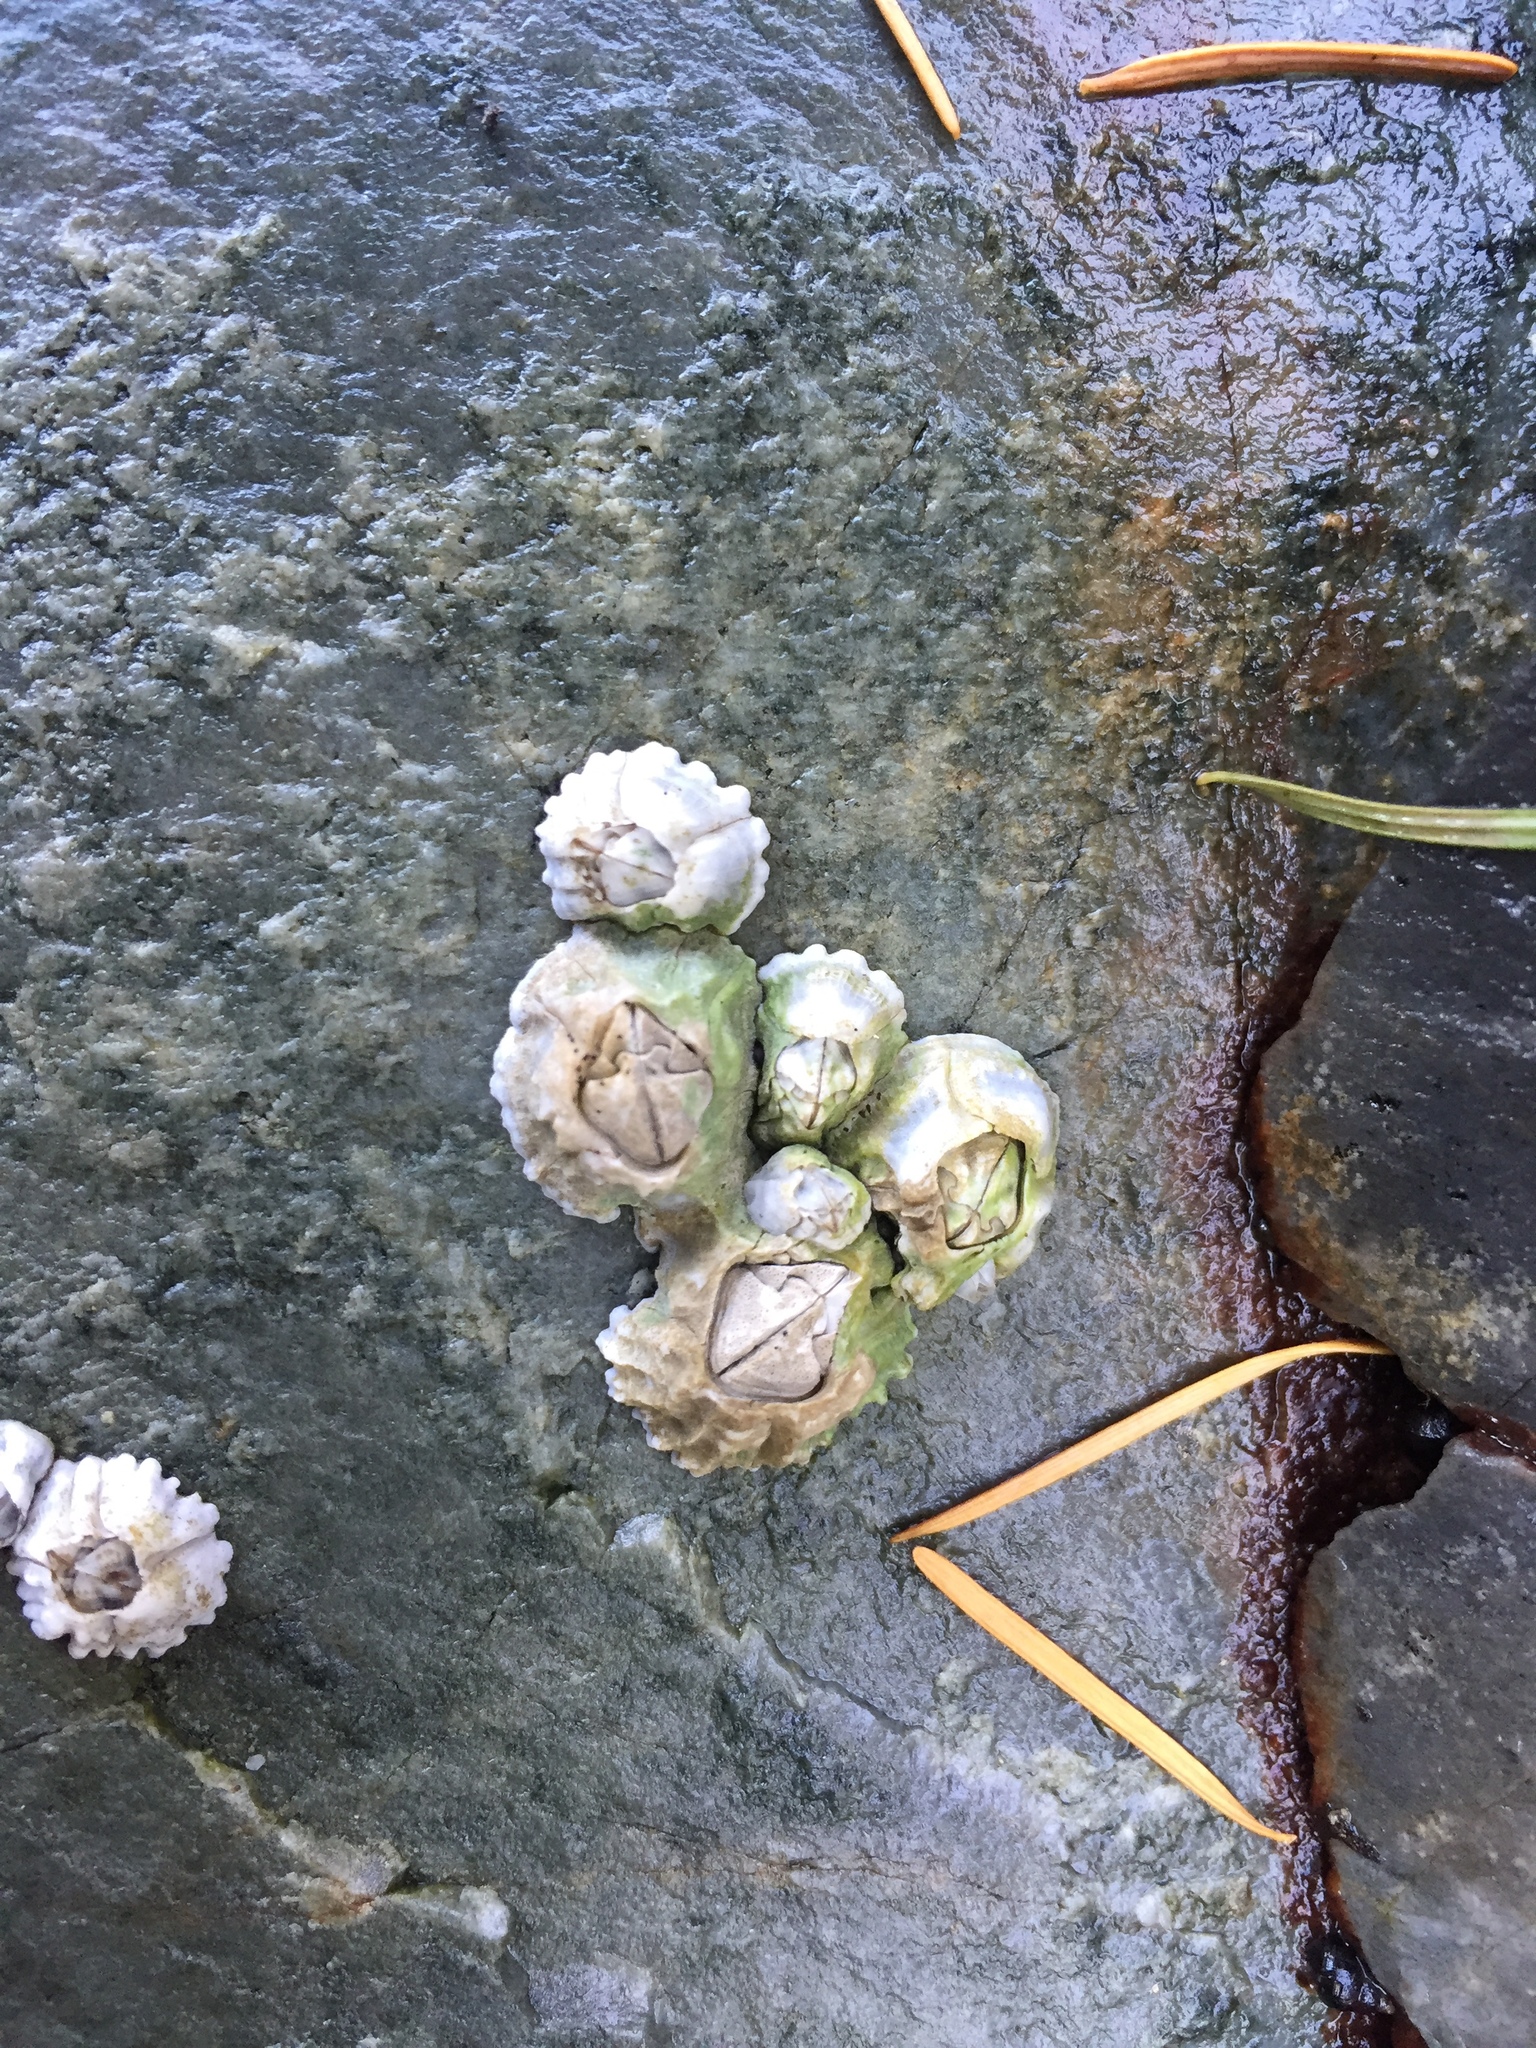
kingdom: Animalia
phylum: Arthropoda
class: Maxillopoda
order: Sessilia
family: Balanidae
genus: Balanus
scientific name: Balanus glandula
